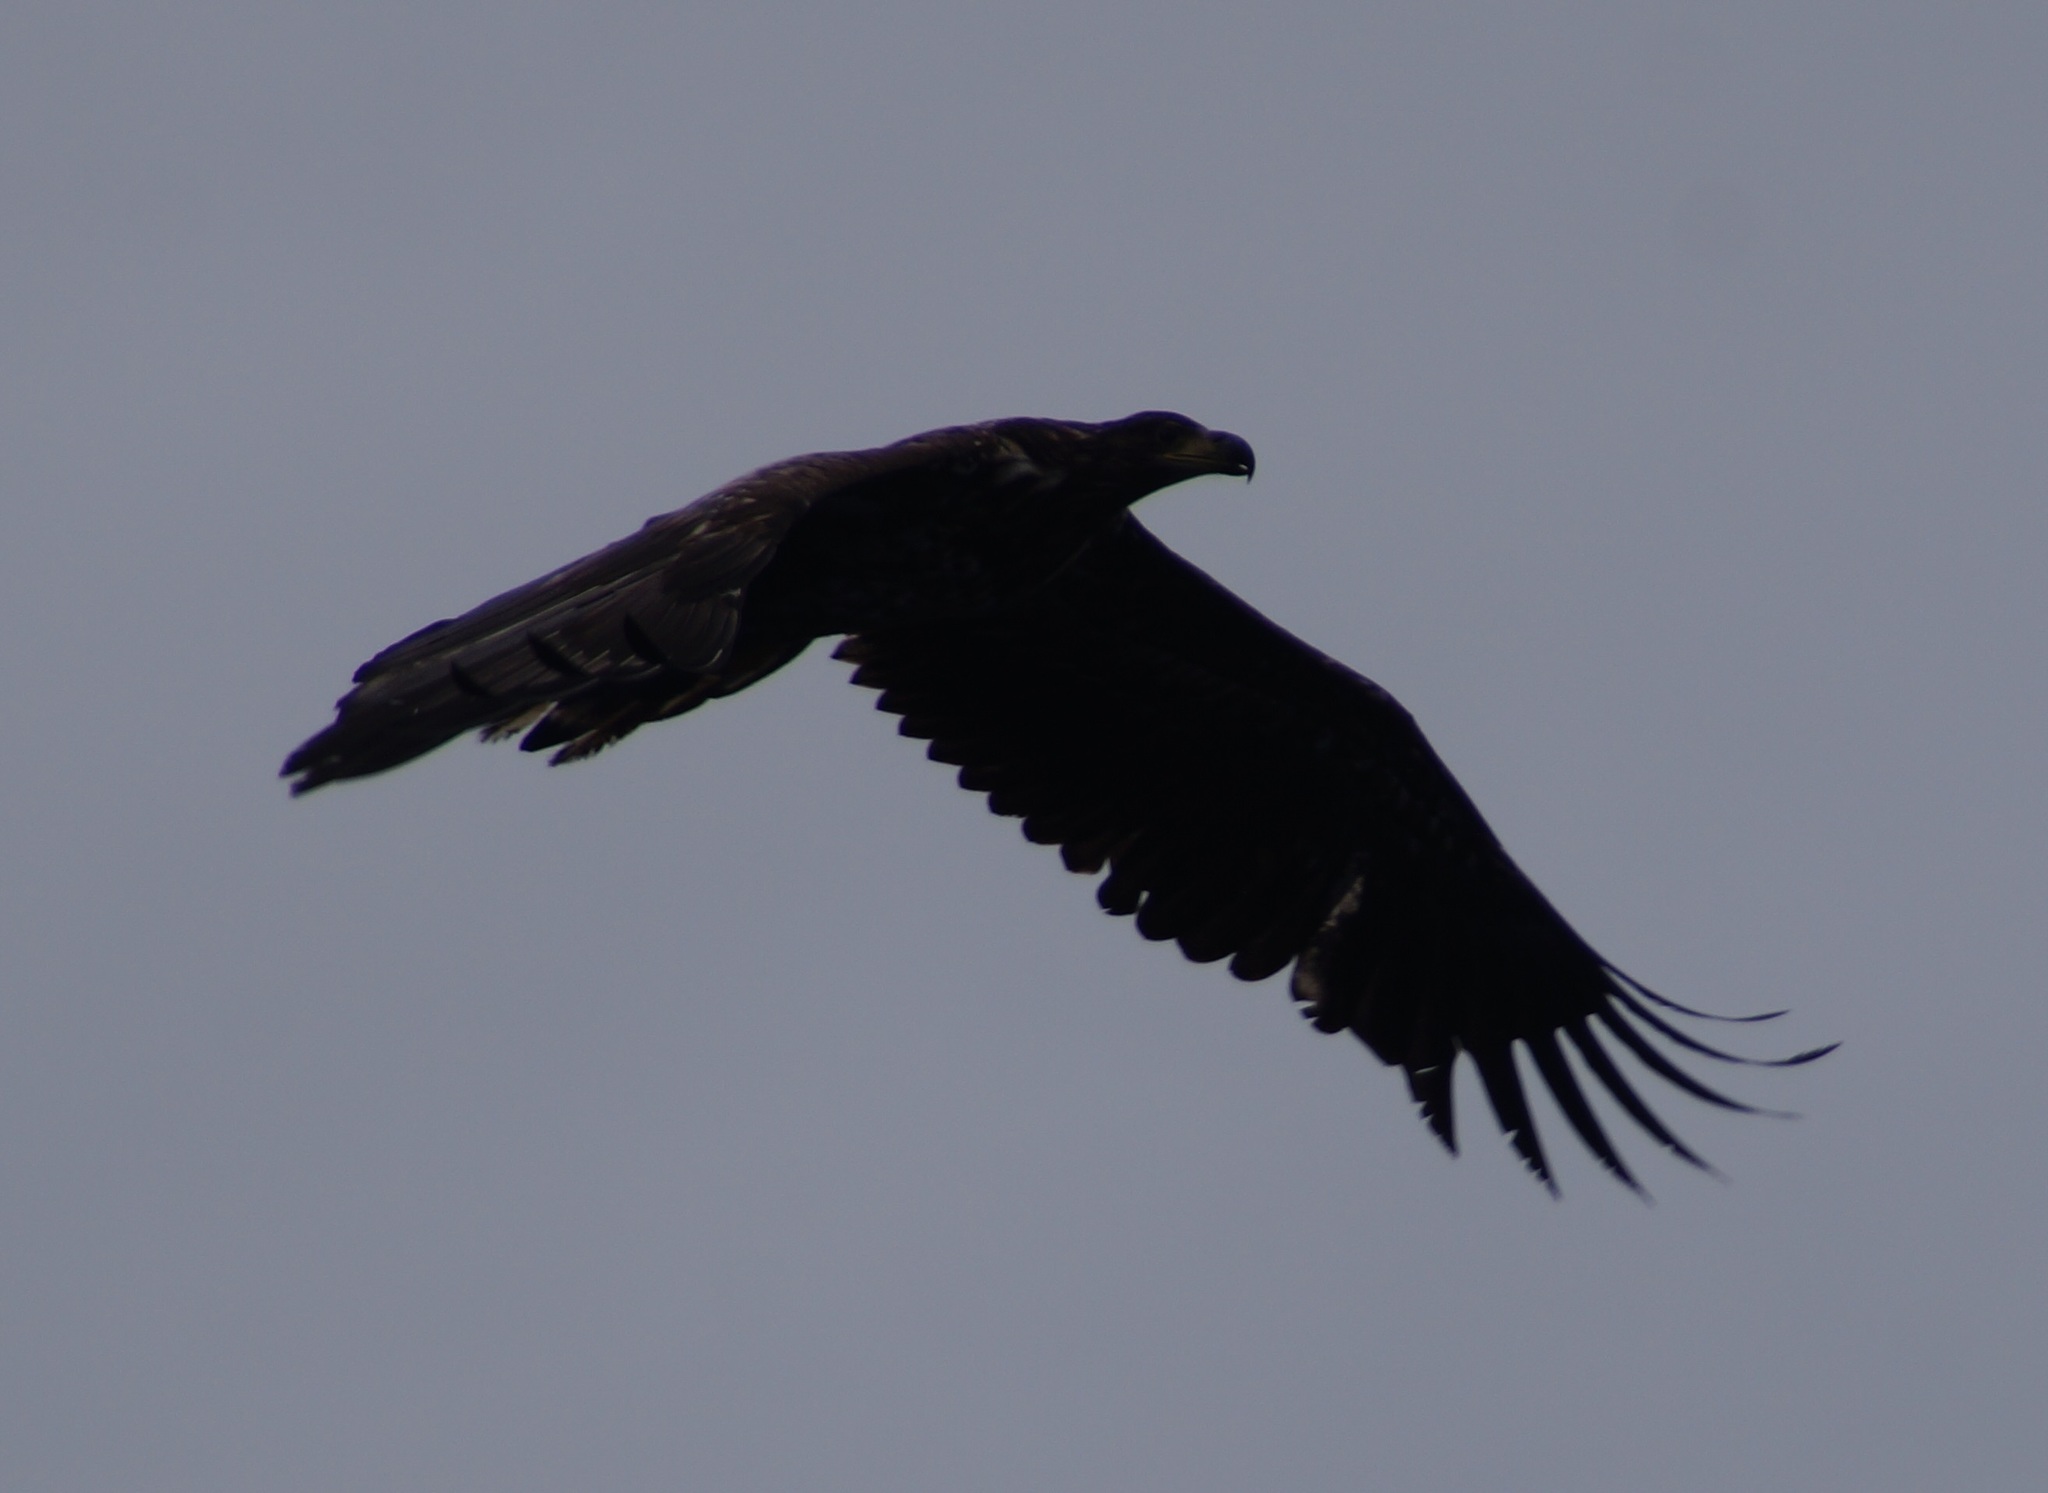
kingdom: Animalia
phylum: Chordata
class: Aves
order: Accipitriformes
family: Accipitridae
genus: Haliaeetus
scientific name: Haliaeetus albicilla
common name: White-tailed eagle
